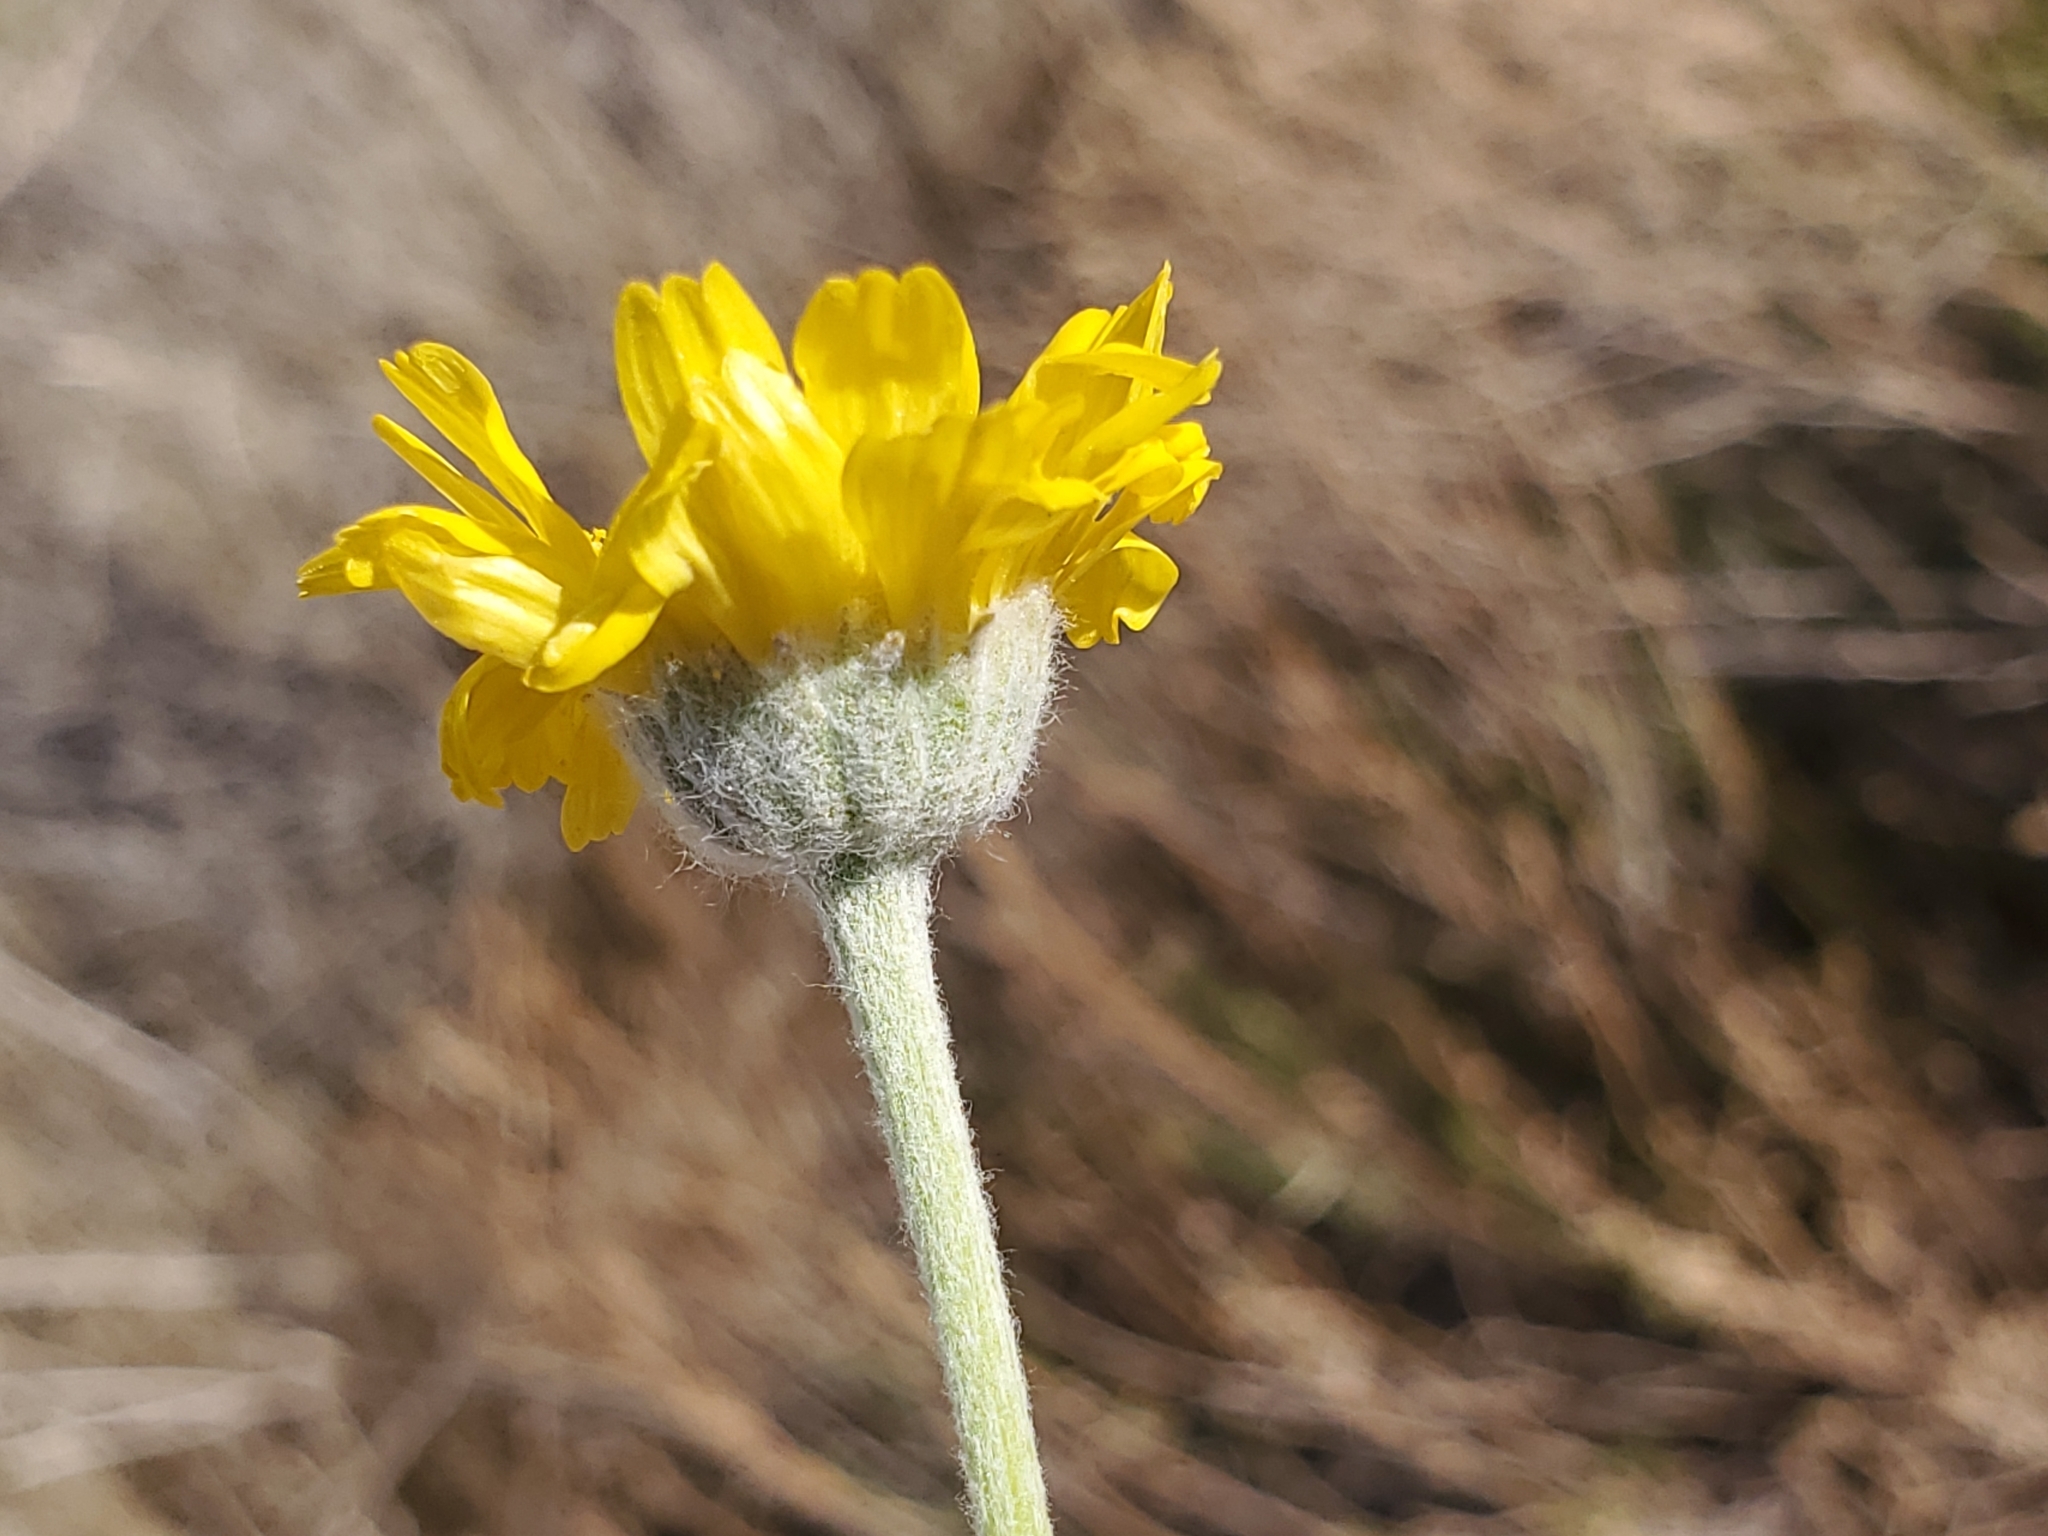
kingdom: Plantae
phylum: Tracheophyta
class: Magnoliopsida
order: Asterales
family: Asteraceae
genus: Baileya
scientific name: Baileya multiradiata
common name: Desert-marigold
